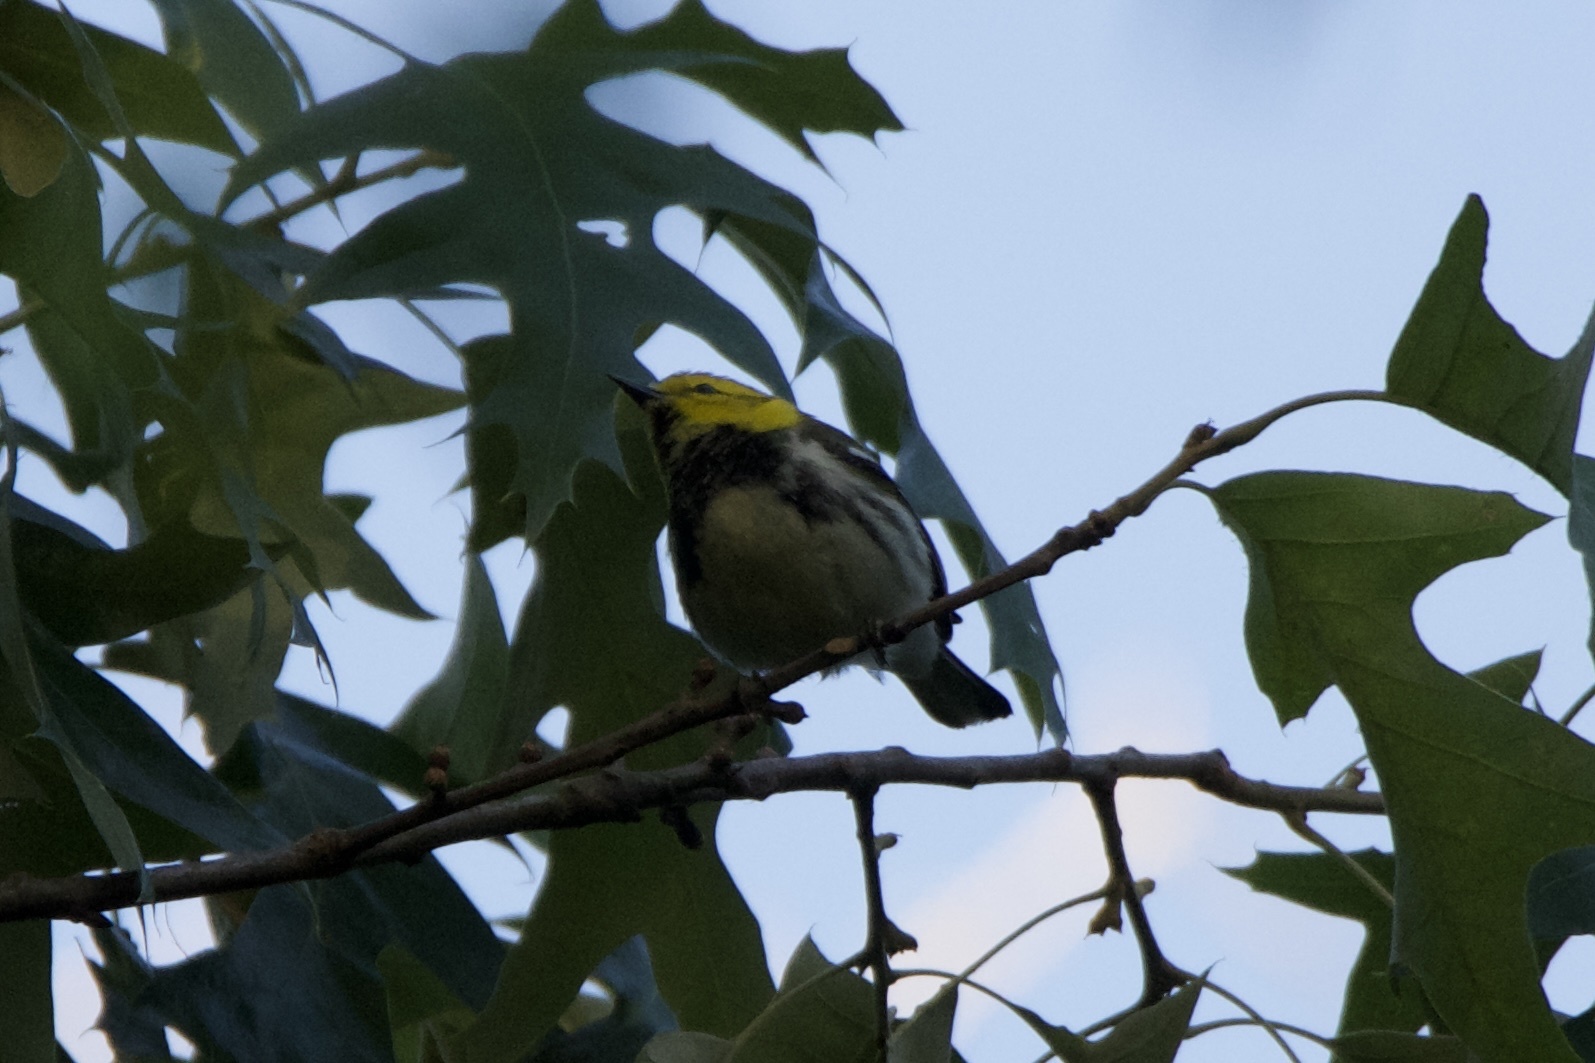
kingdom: Animalia
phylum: Chordata
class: Aves
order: Passeriformes
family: Parulidae
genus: Setophaga
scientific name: Setophaga virens
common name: Black-throated green warbler
